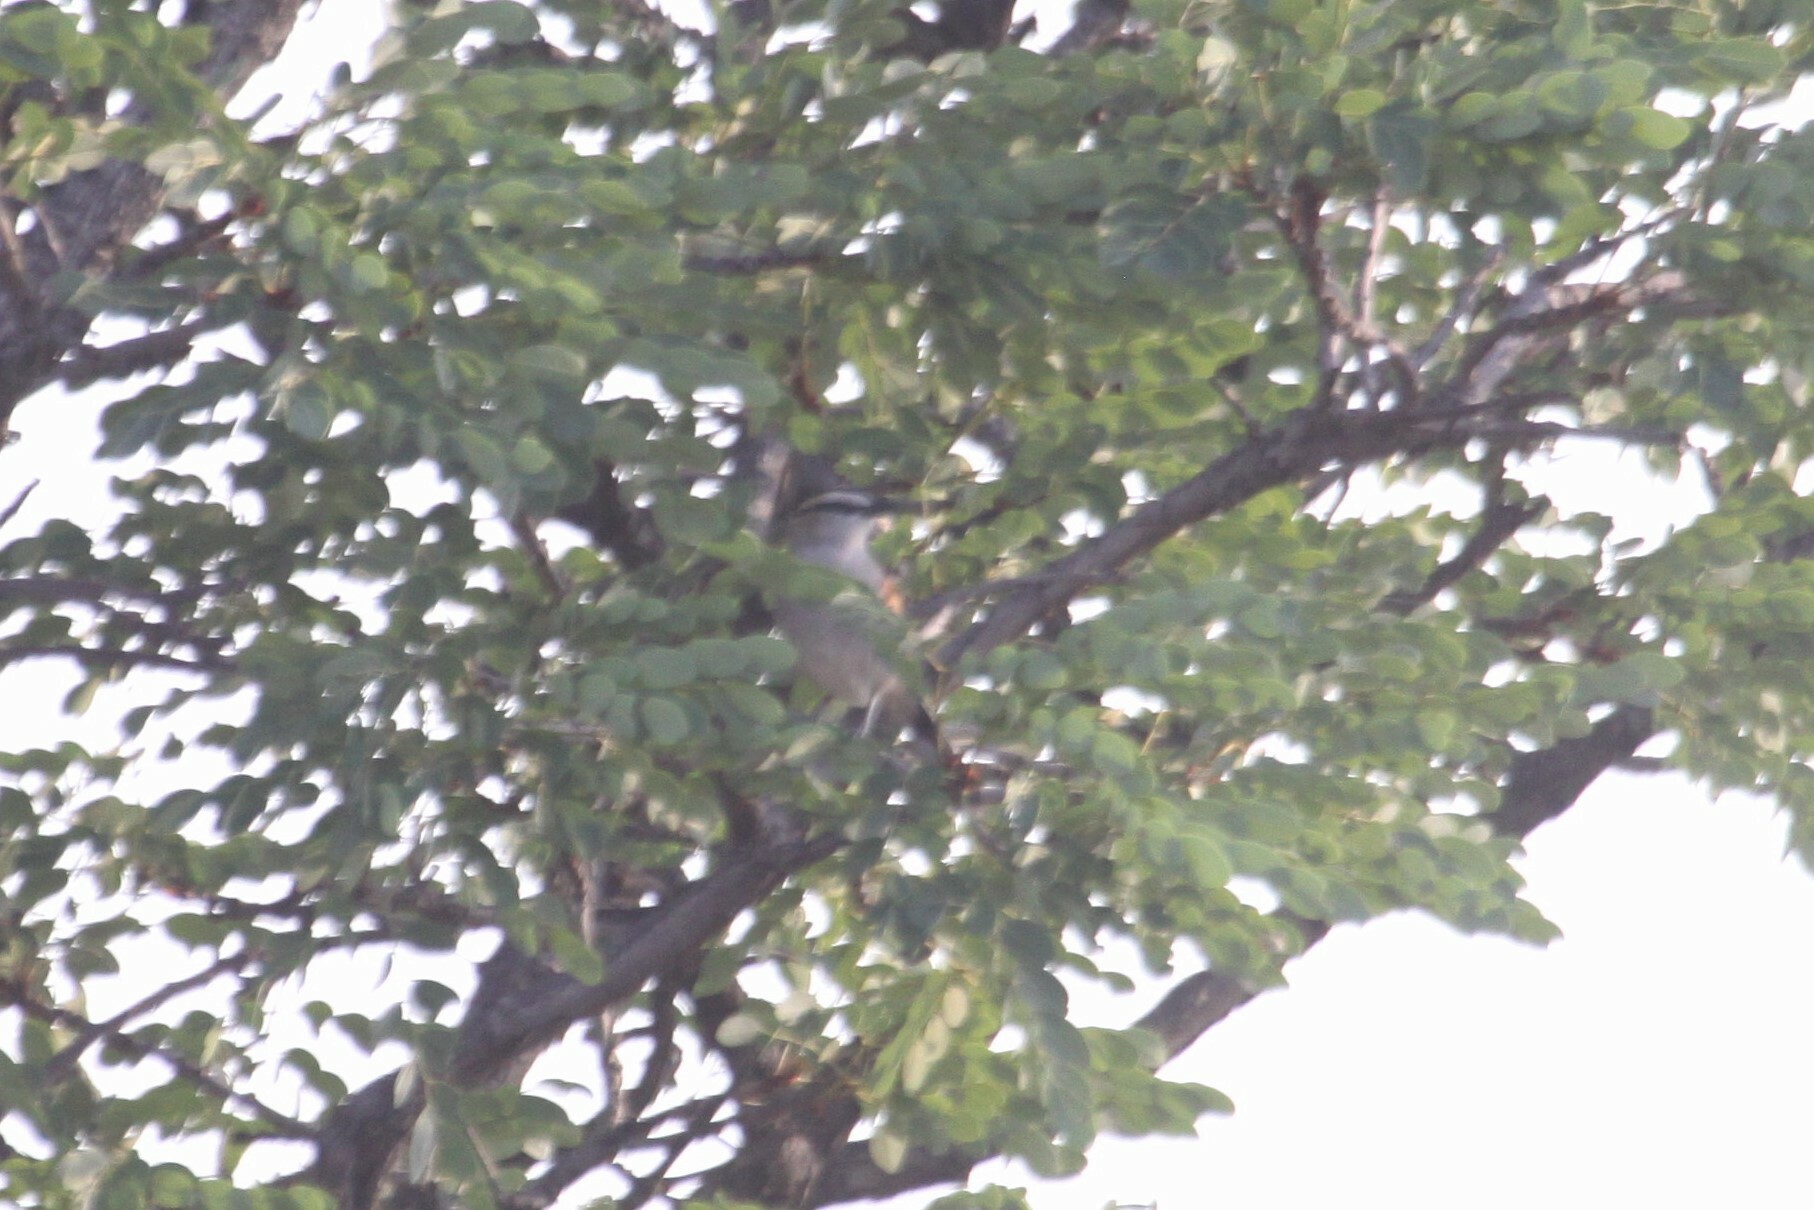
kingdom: Animalia
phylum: Chordata
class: Aves
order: Passeriformes
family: Malaconotidae
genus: Tchagra
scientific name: Tchagra senegalus
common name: Black-crowned tchagra
